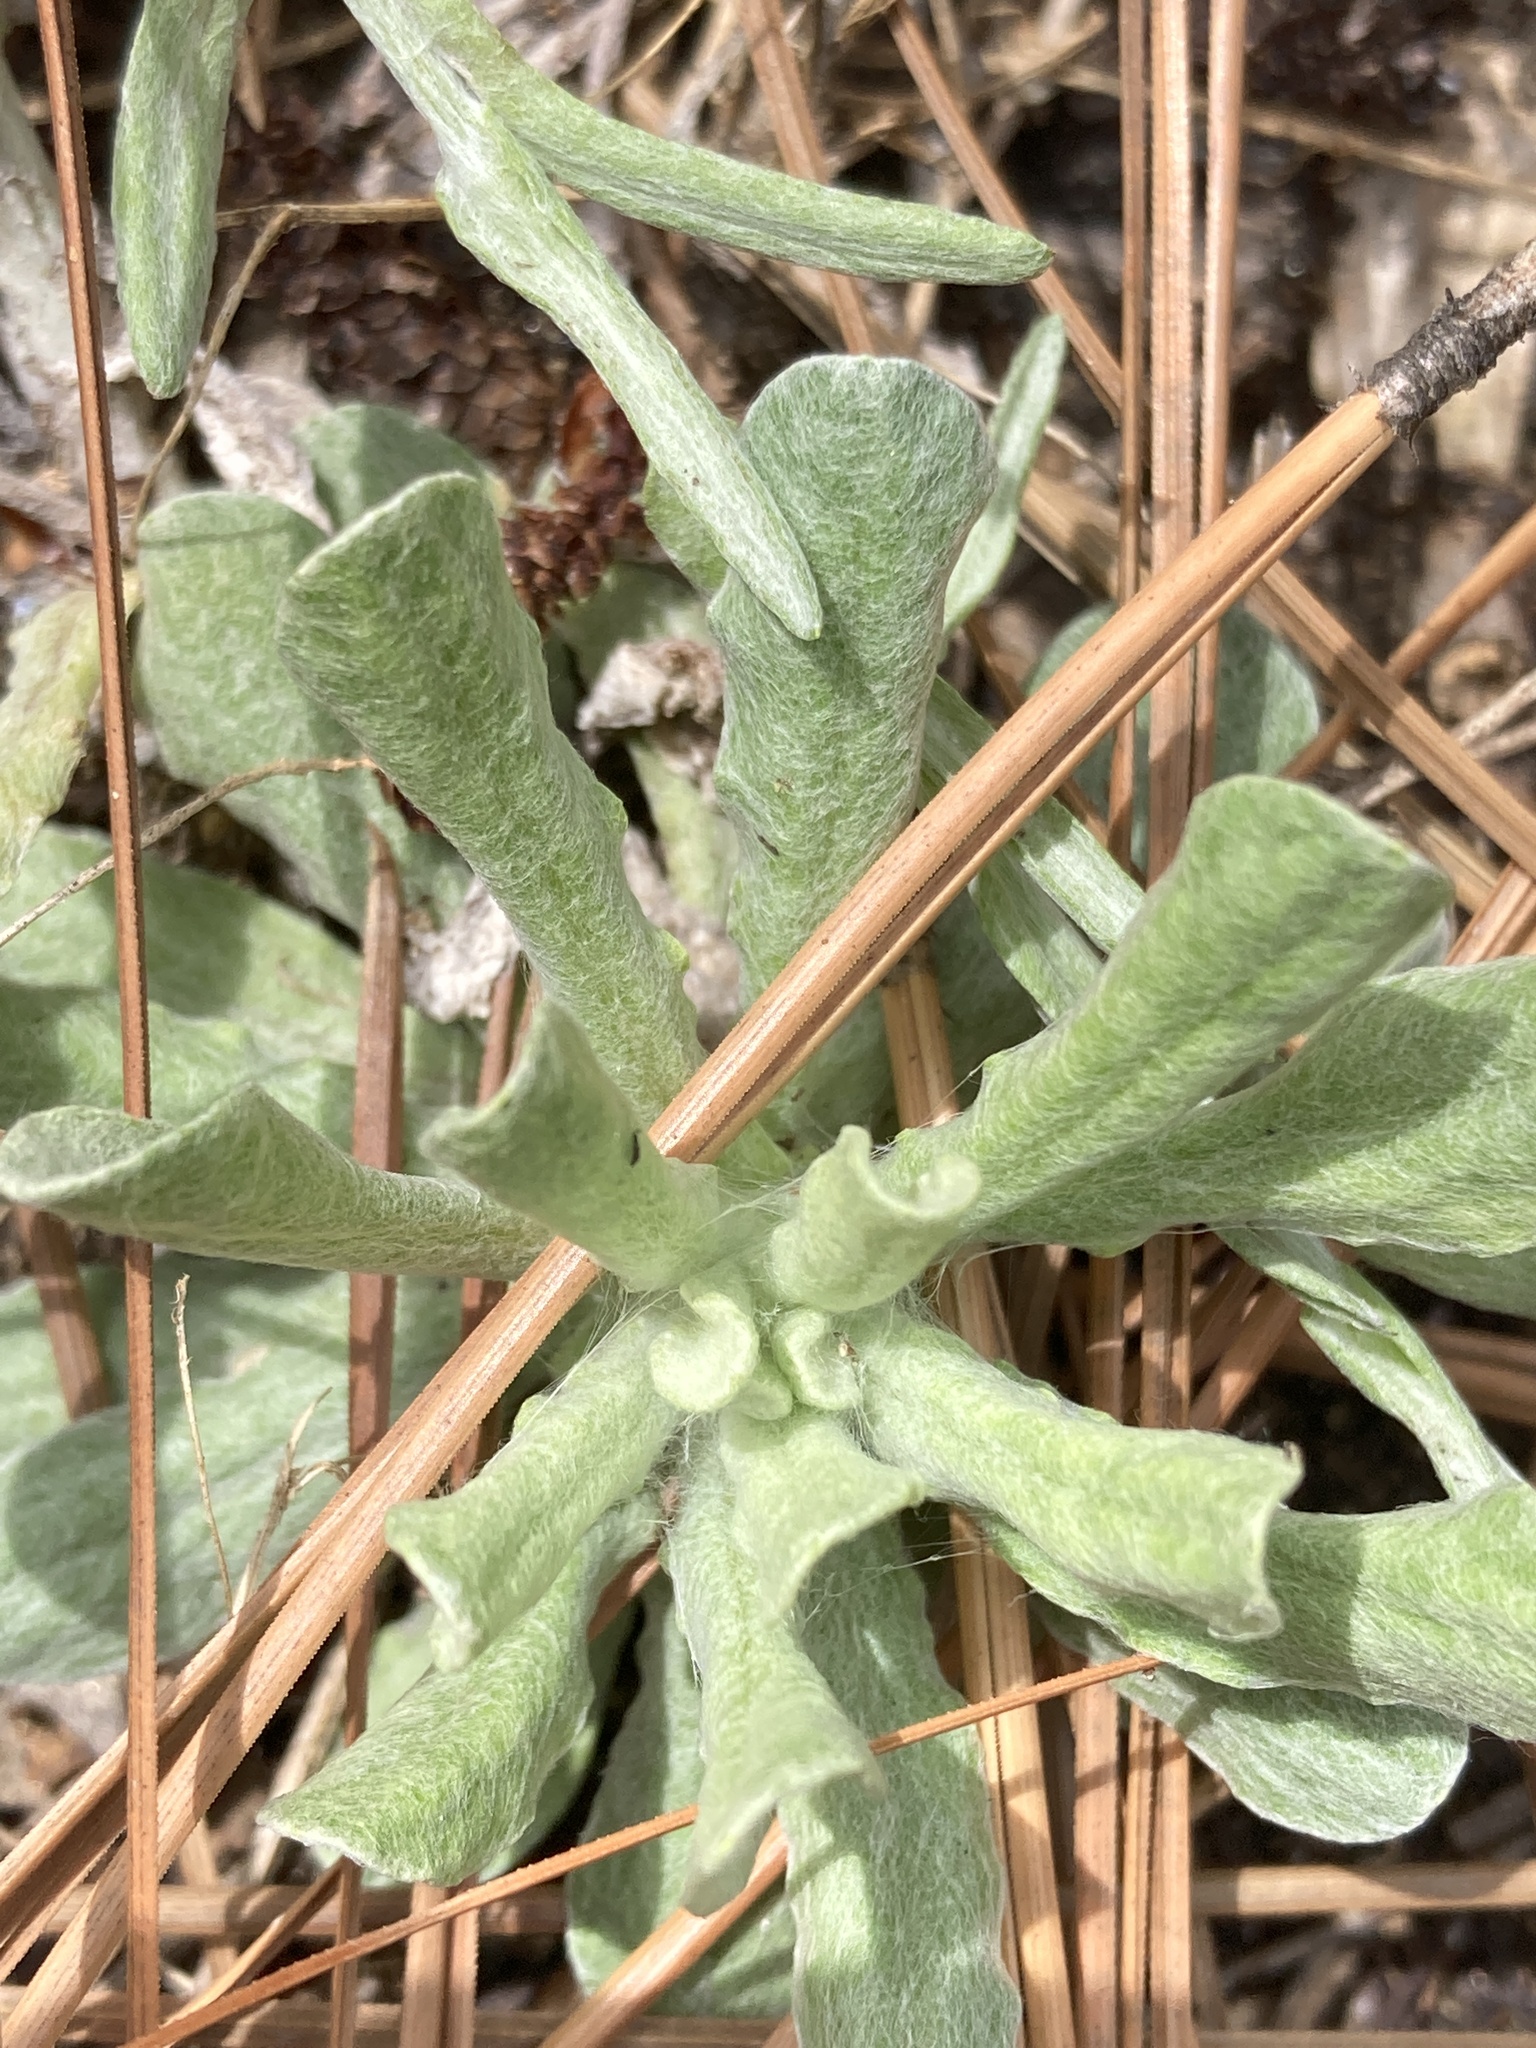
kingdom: Plantae
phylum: Tracheophyta
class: Magnoliopsida
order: Asterales
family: Asteraceae
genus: Helichrysum
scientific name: Helichrysum luteoalbum
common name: Daisy
